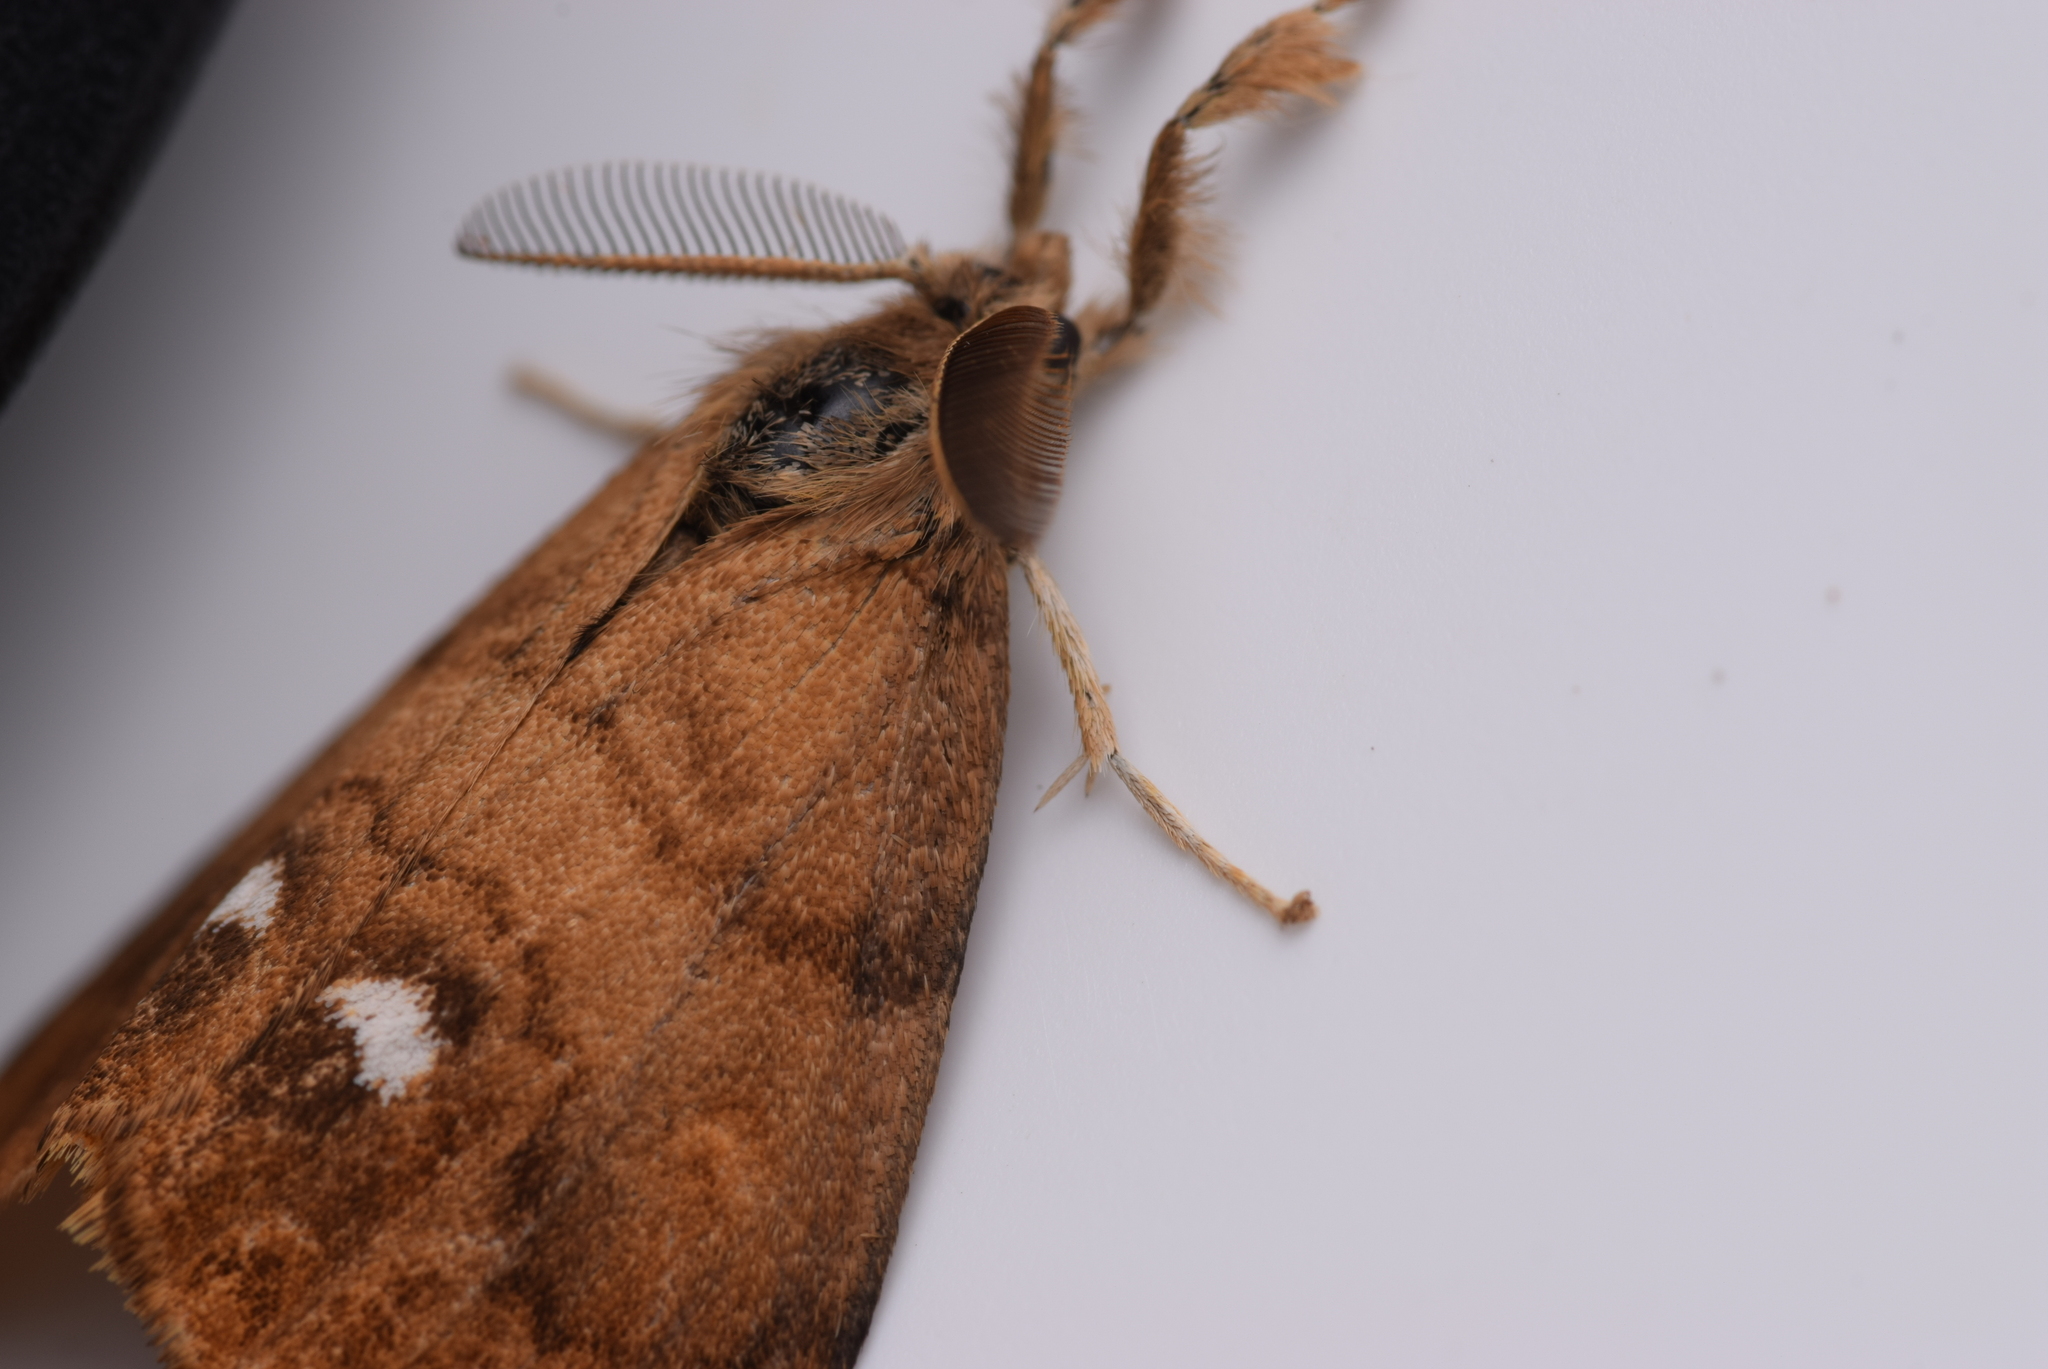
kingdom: Animalia
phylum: Arthropoda
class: Insecta
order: Lepidoptera
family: Erebidae
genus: Orgyia
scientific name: Orgyia antiqua
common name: Vapourer
